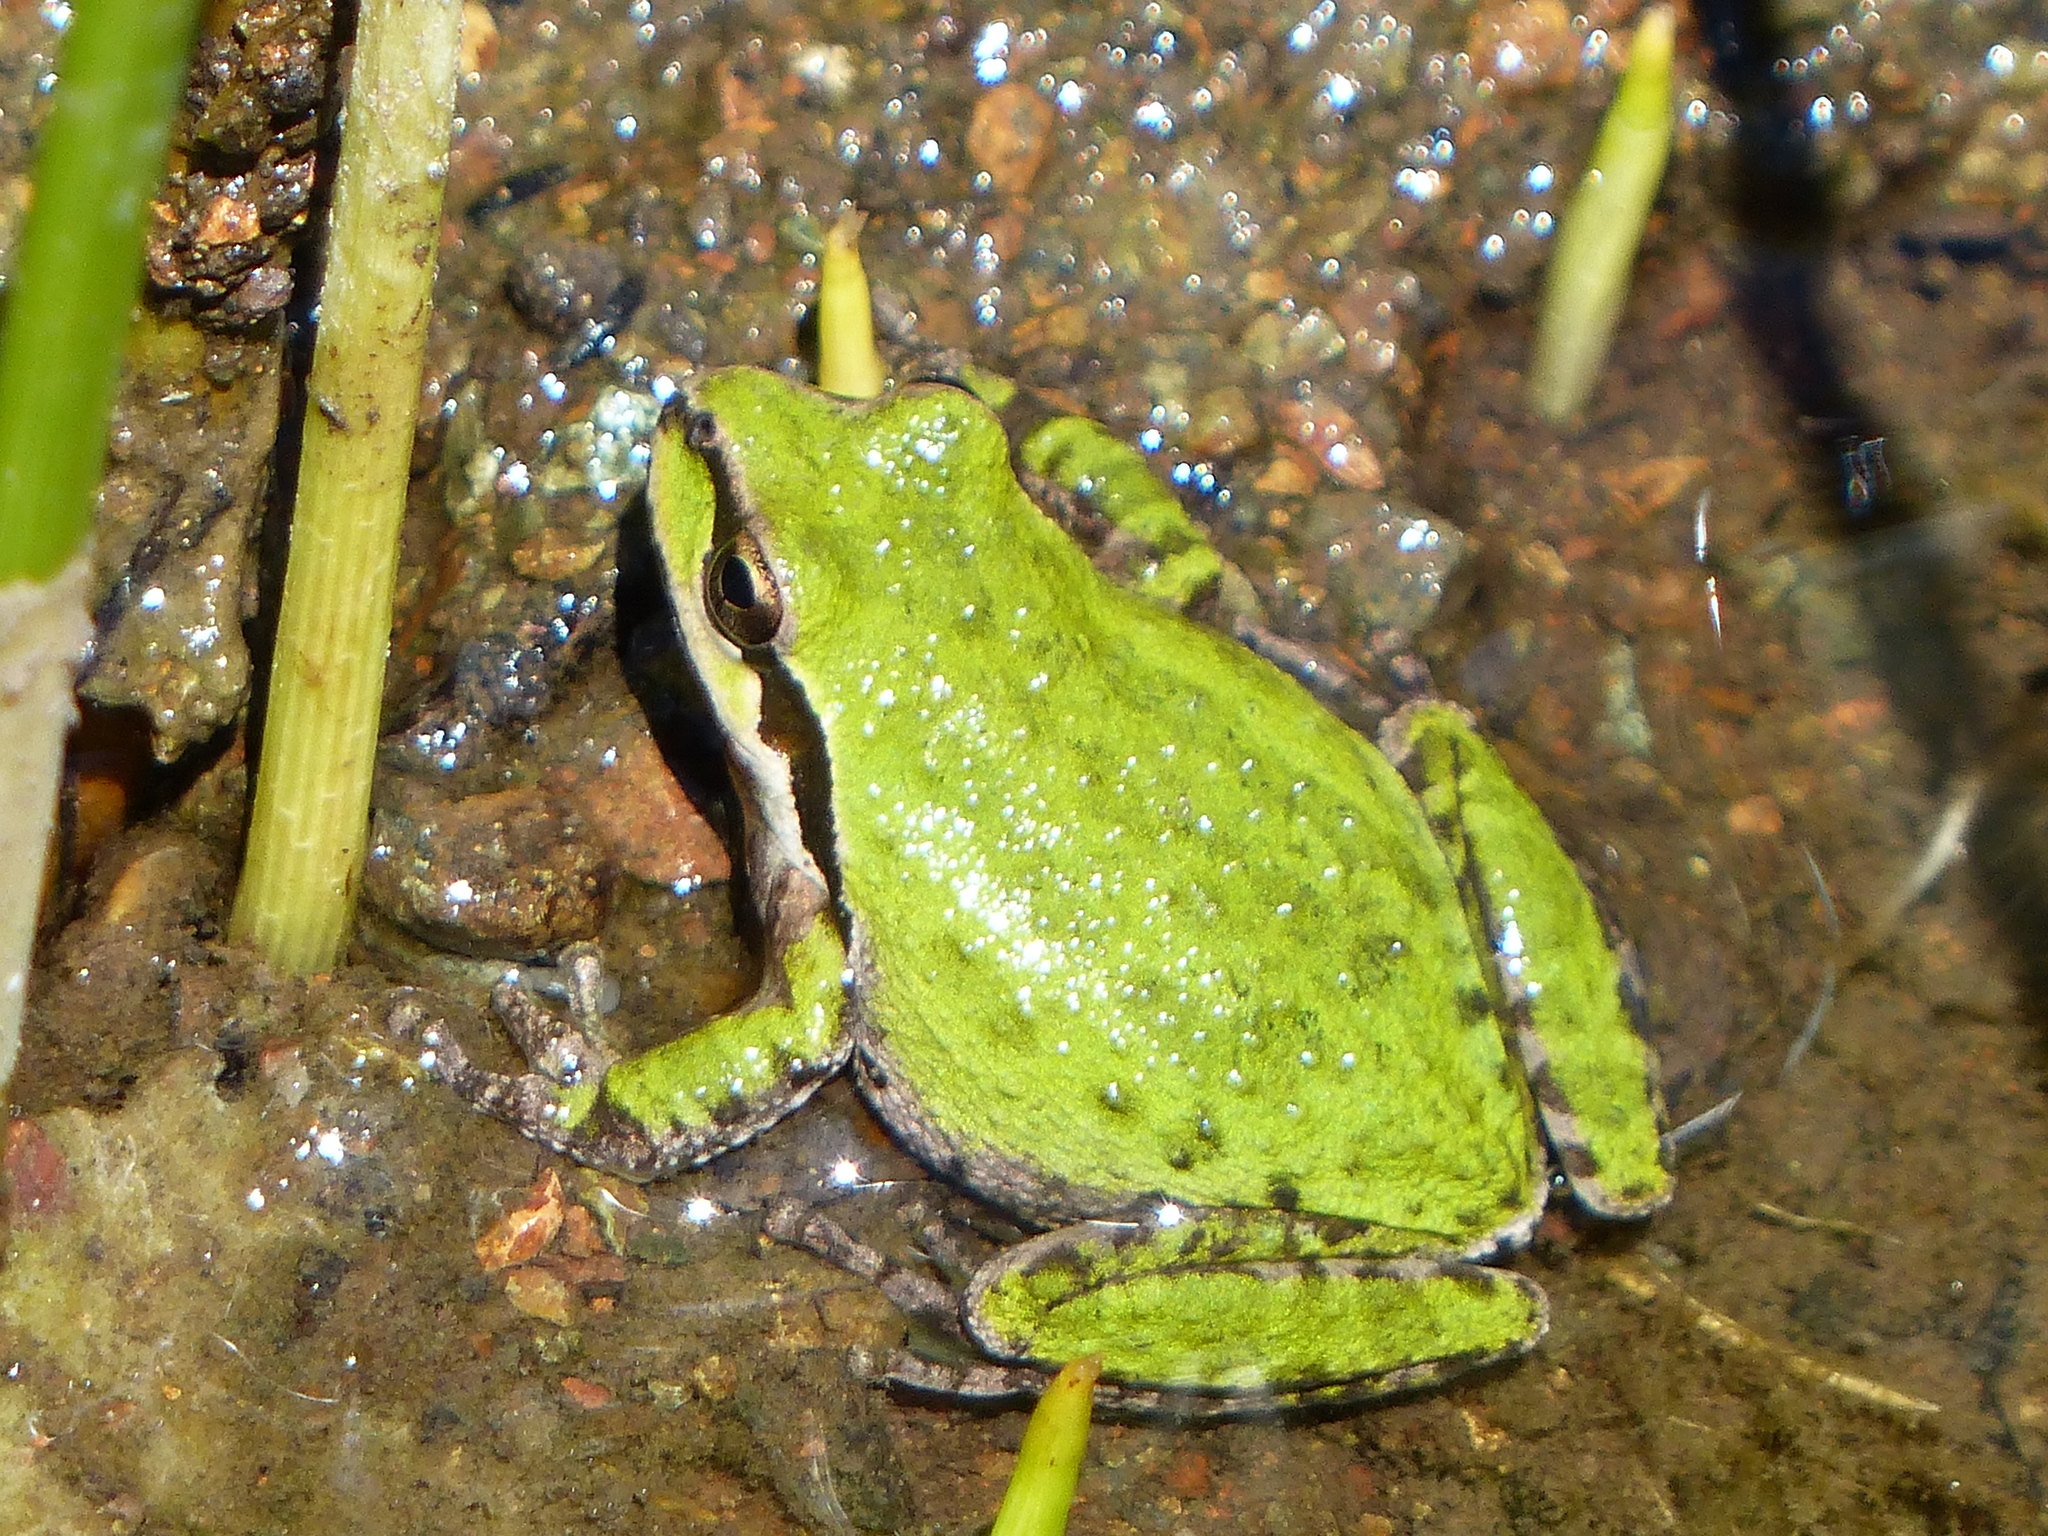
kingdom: Animalia
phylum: Chordata
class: Amphibia
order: Anura
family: Hylidae
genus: Pseudacris
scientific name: Pseudacris regilla
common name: Pacific chorus frog
